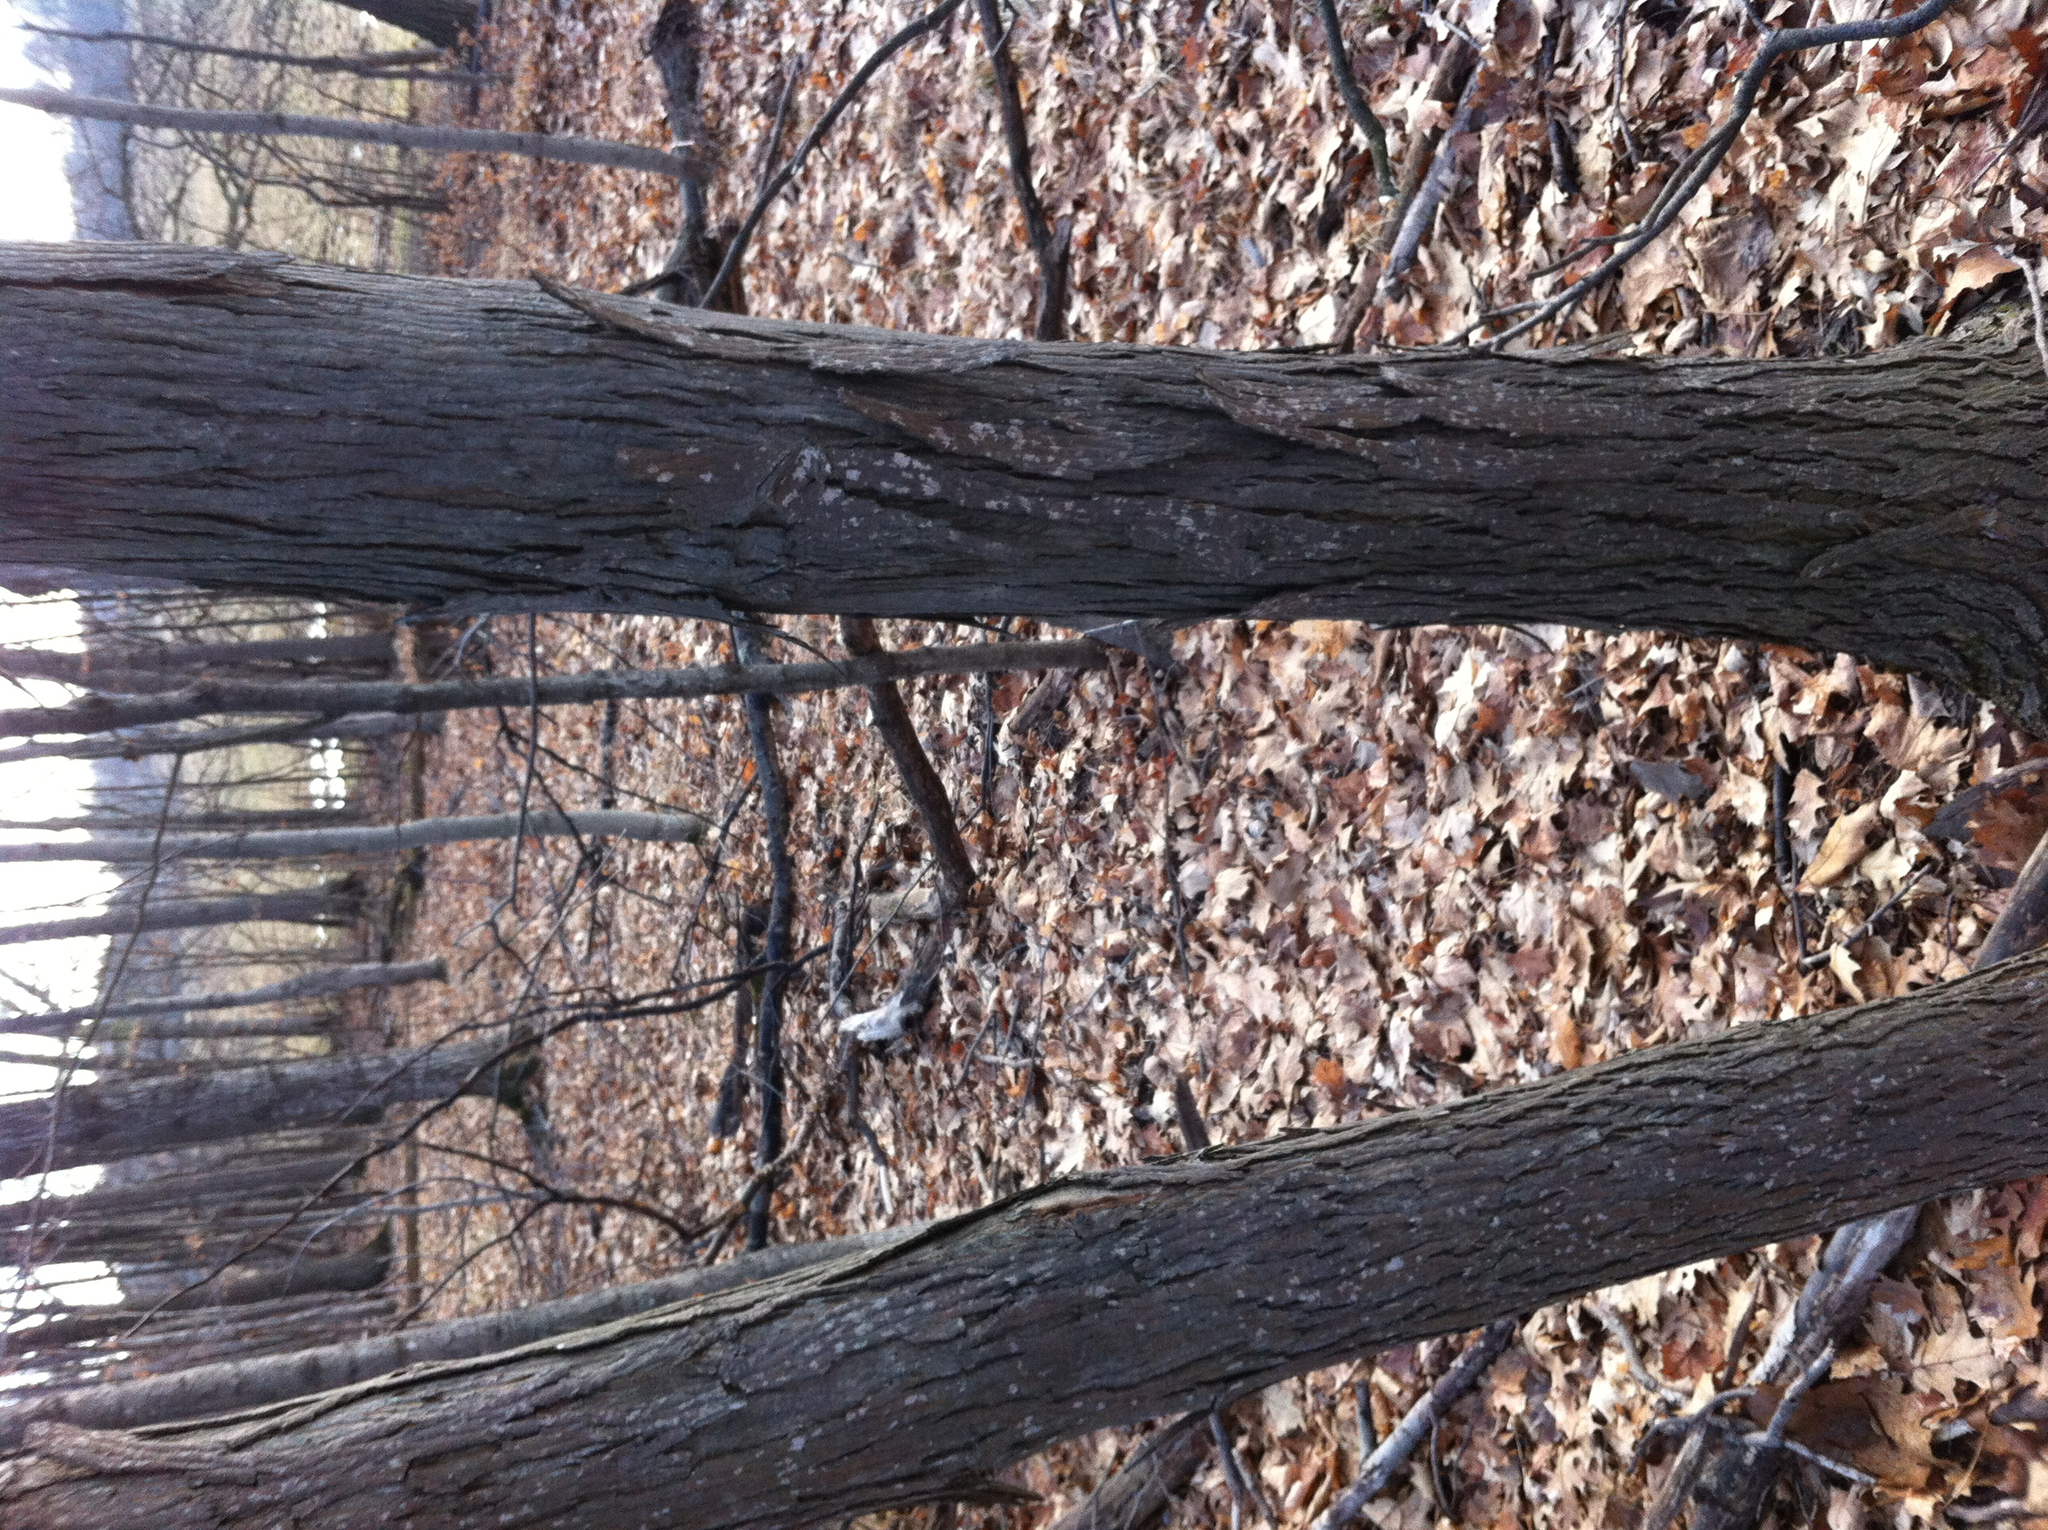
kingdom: Plantae
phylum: Tracheophyta
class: Magnoliopsida
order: Fagales
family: Juglandaceae
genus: Carya
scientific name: Carya ovata
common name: Shagbark hickory
